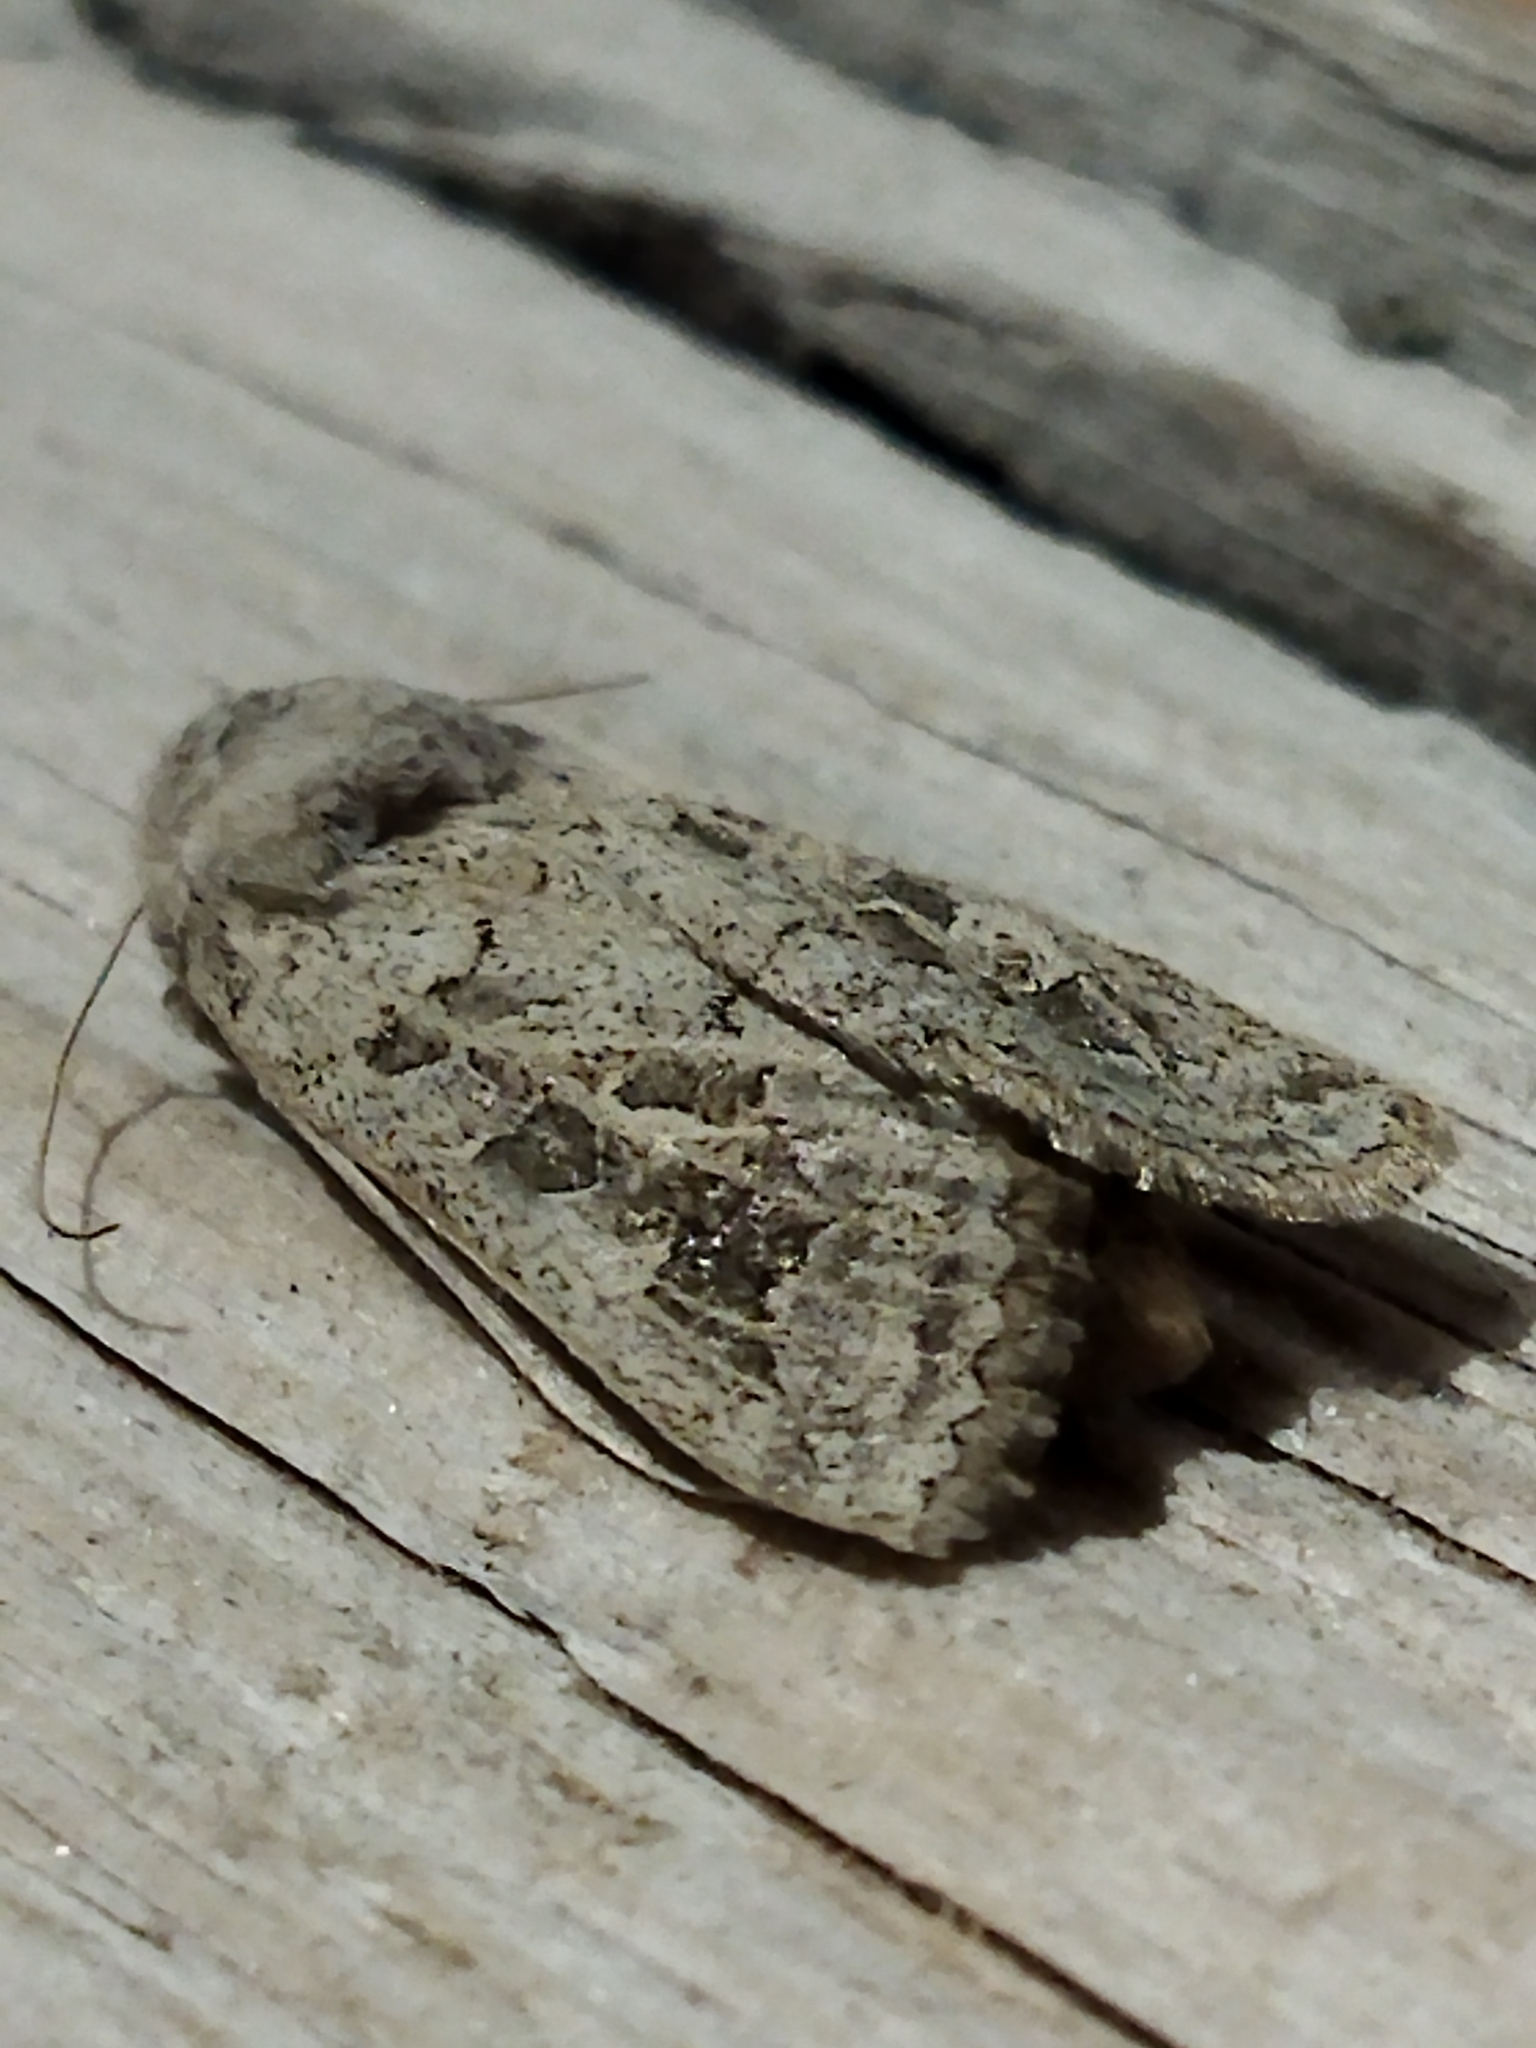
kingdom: Animalia
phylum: Arthropoda
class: Insecta
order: Lepidoptera
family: Noctuidae
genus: Episema
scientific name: Episema lederi
